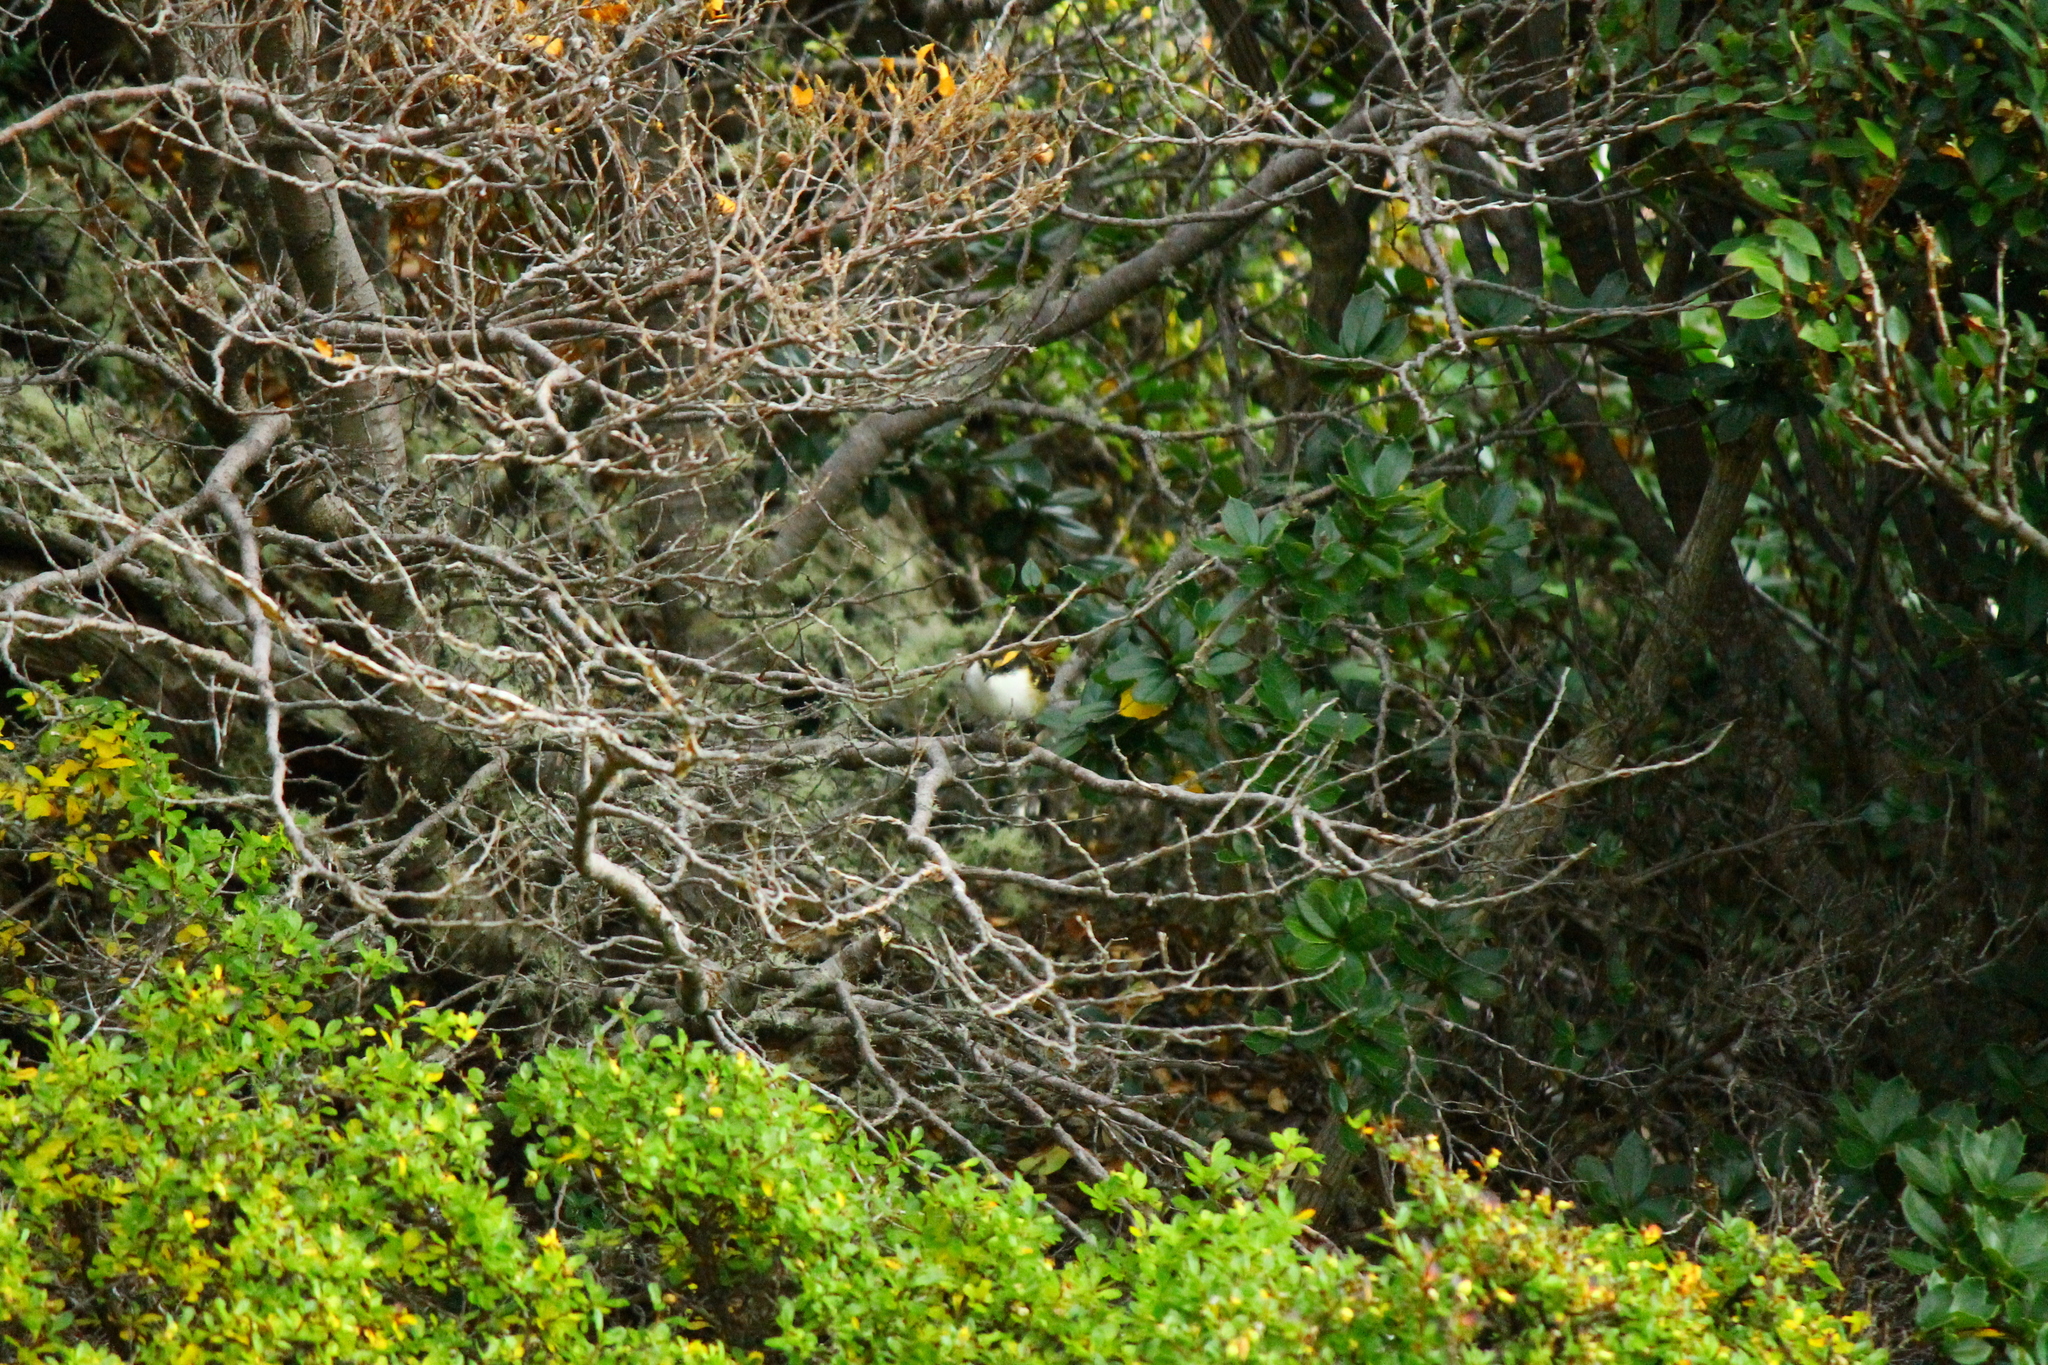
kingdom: Animalia
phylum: Chordata
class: Aves
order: Passeriformes
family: Furnariidae
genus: Aphrastura
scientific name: Aphrastura spinicauda
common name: Thorn-tailed rayadito
